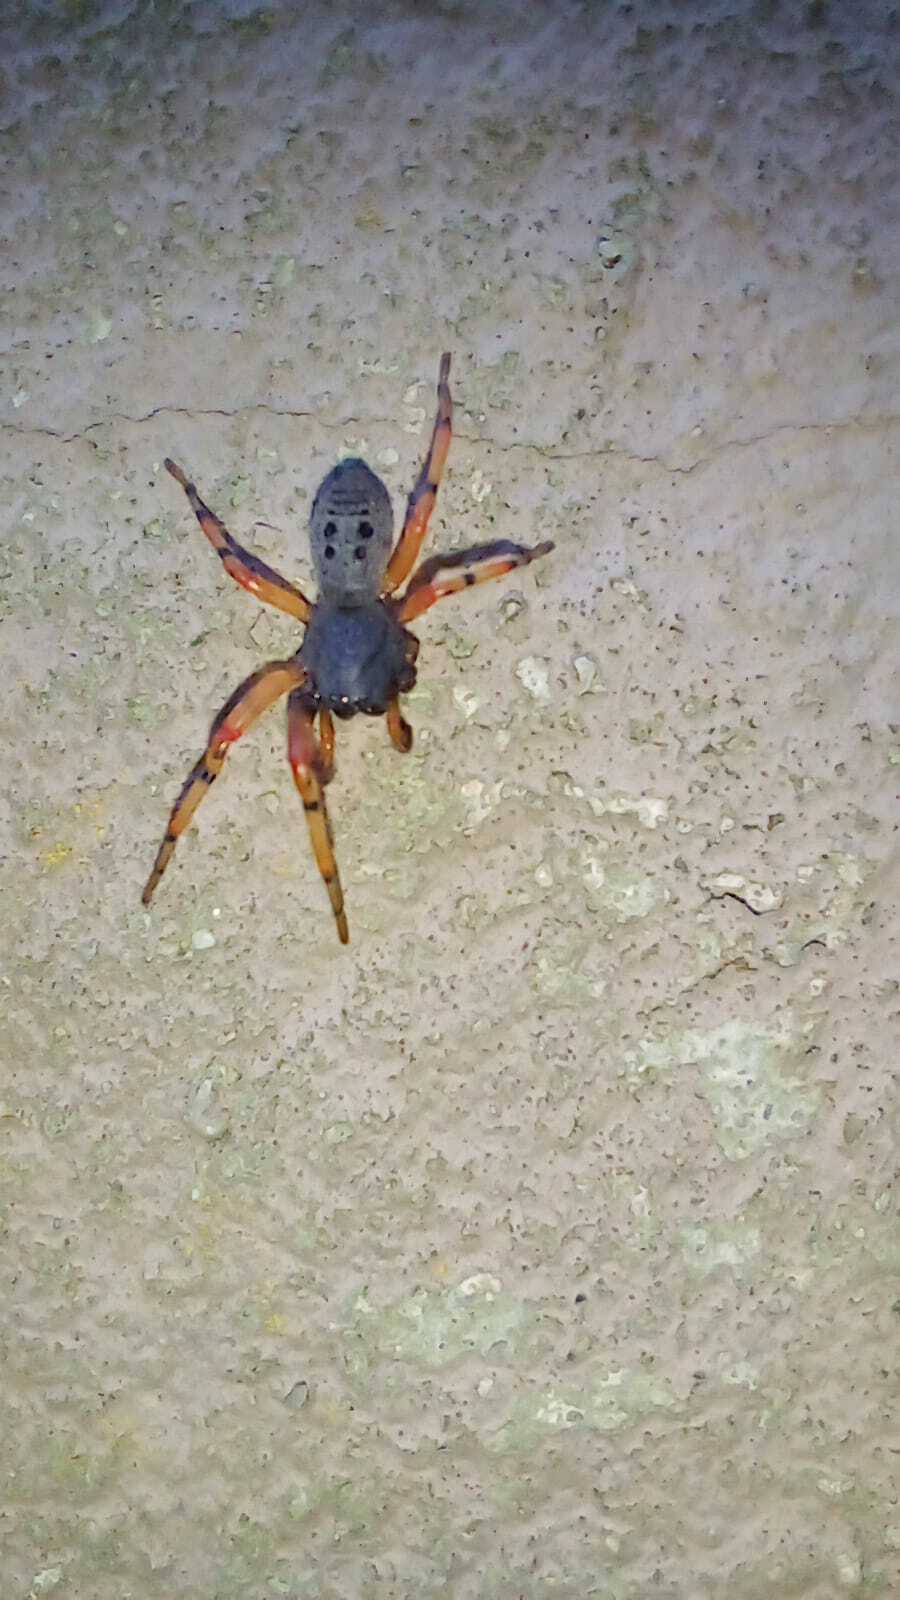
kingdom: Animalia
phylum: Arthropoda
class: Arachnida
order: Araneae
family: Trachelidae
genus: Trachelopachys
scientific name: Trachelopachys
